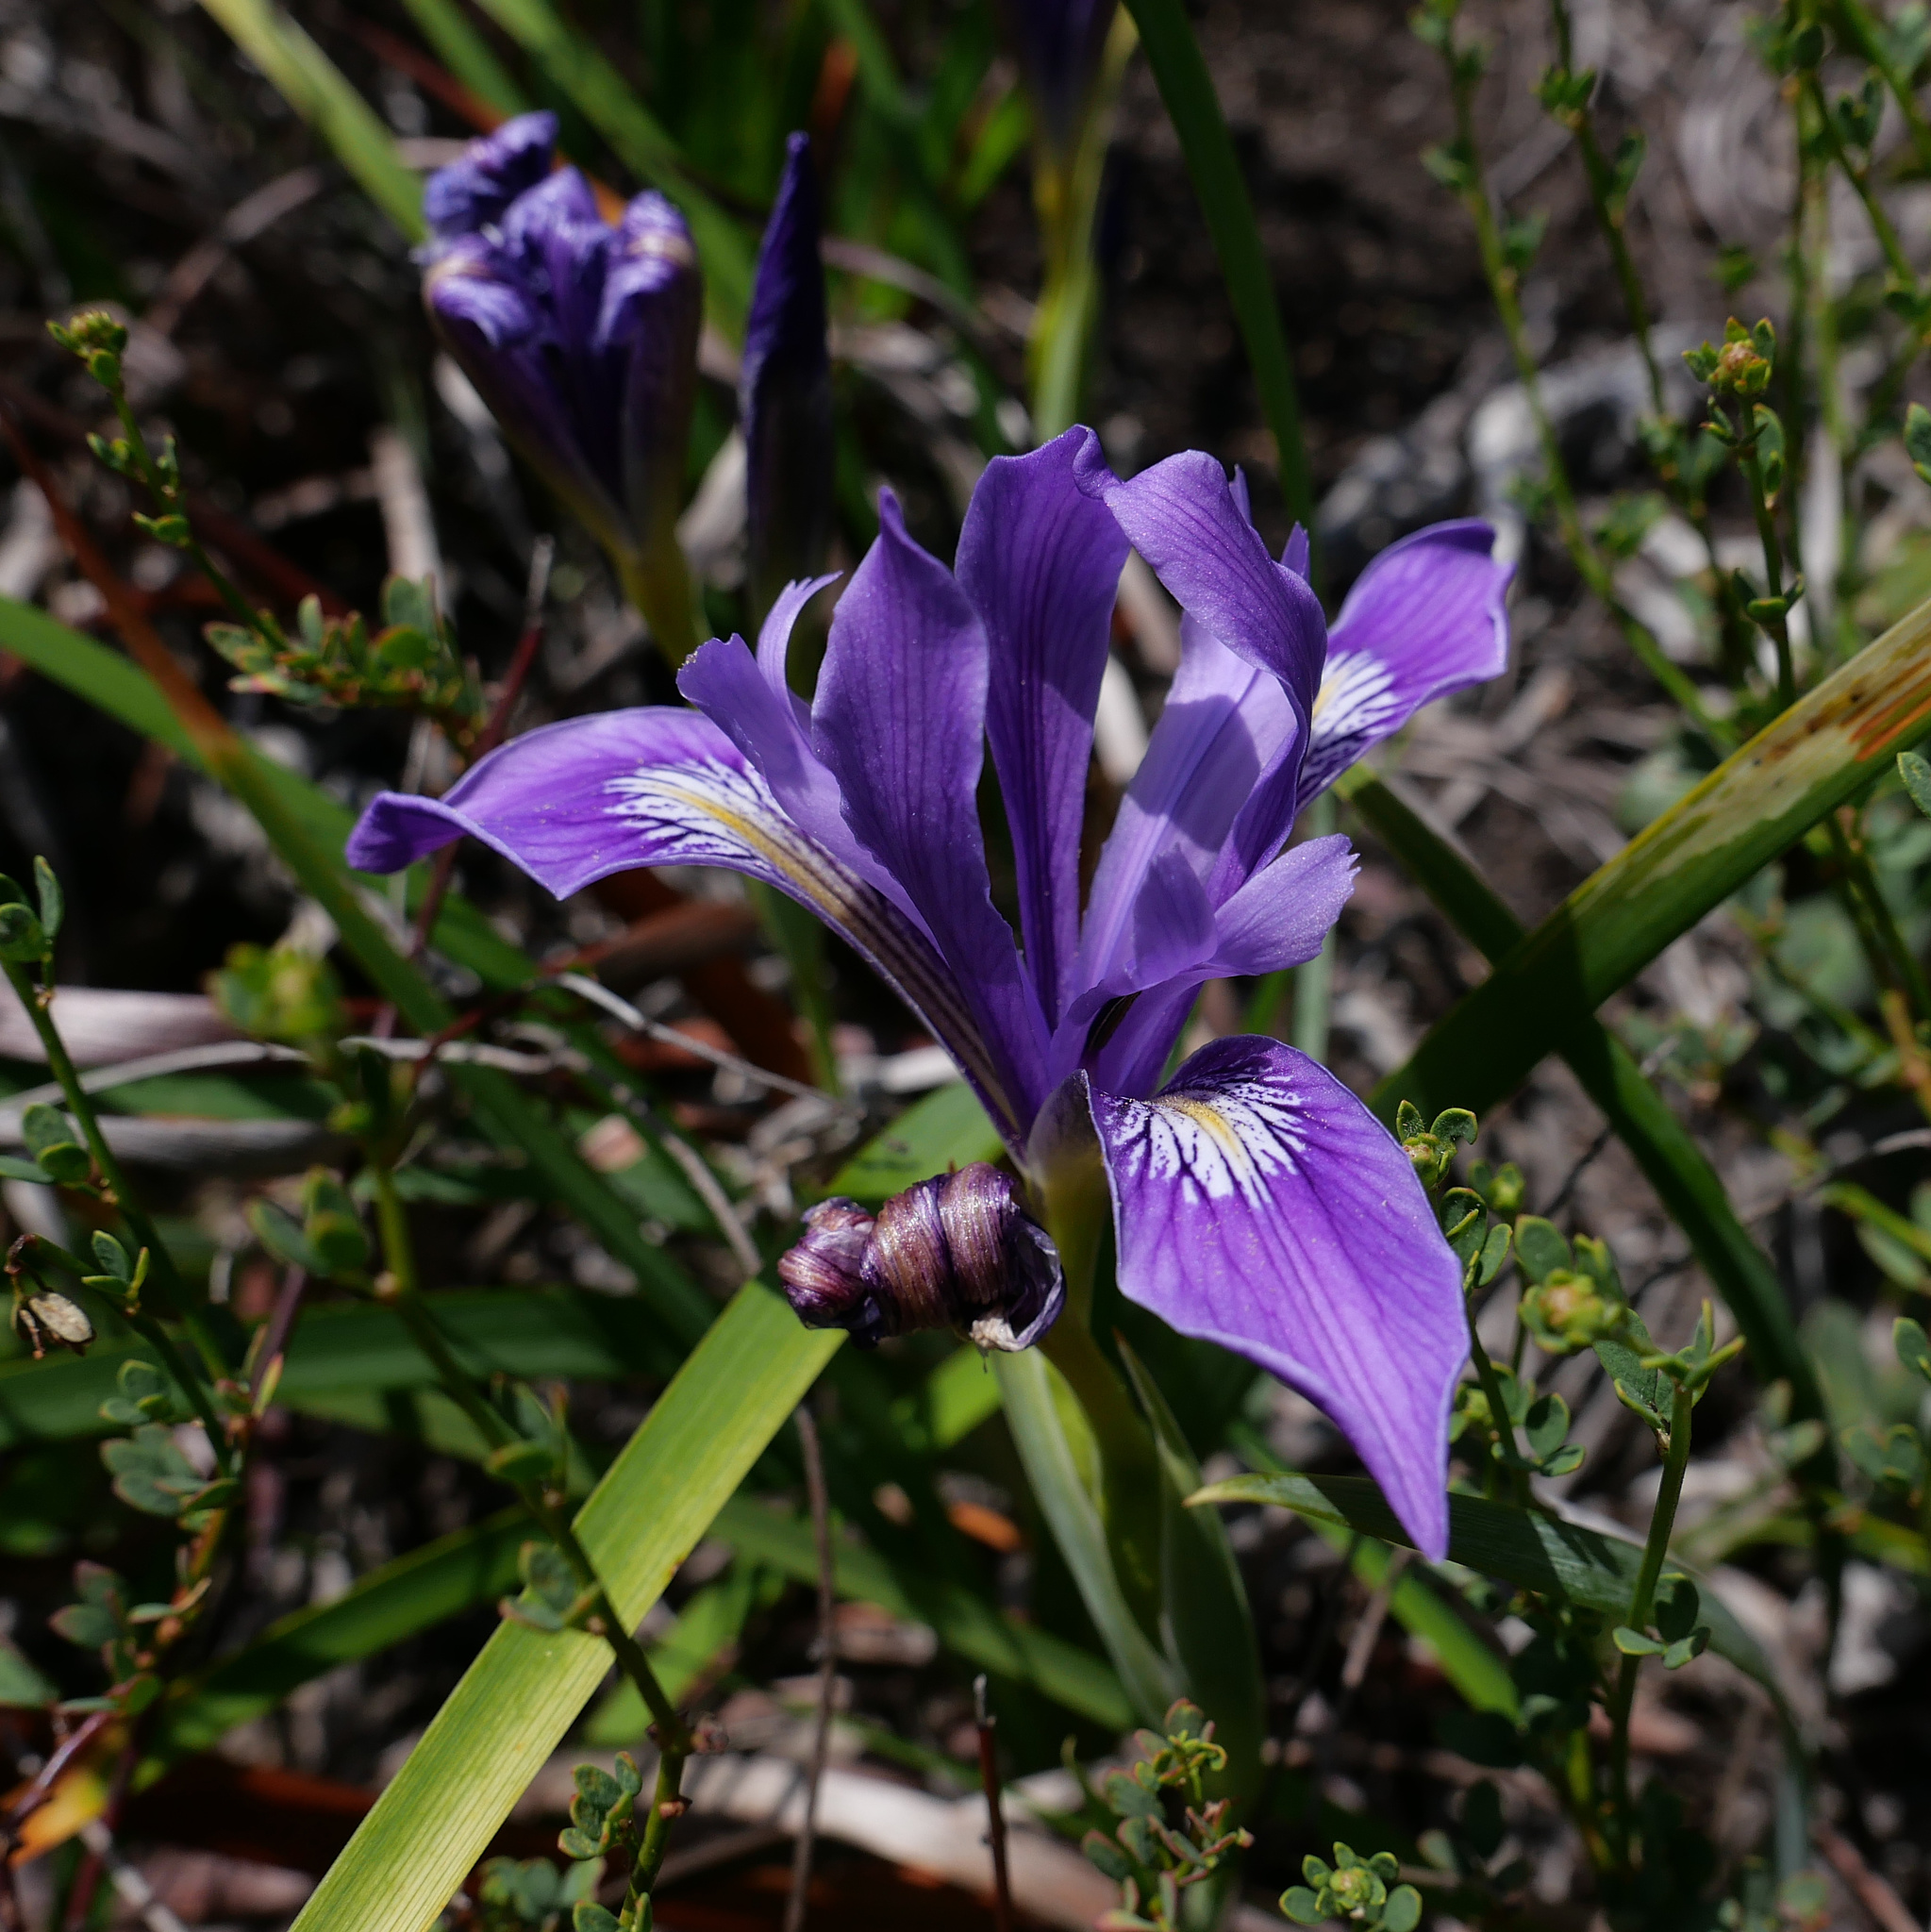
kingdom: Plantae
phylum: Tracheophyta
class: Liliopsida
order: Asparagales
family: Iridaceae
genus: Iris
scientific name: Iris douglasiana
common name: Marin iris
